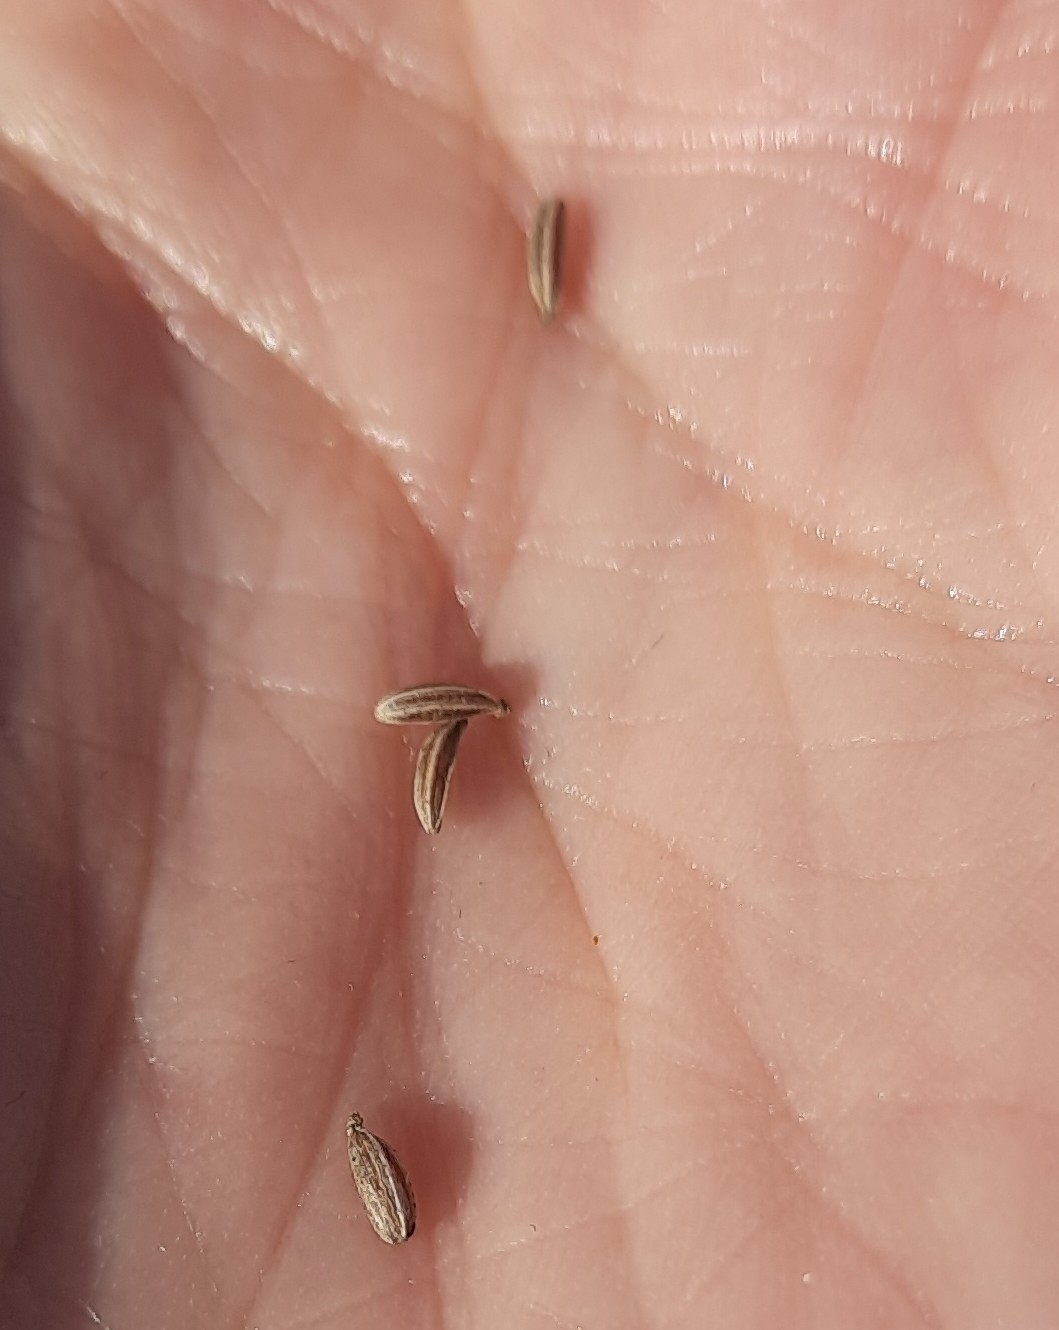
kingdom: Plantae
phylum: Tracheophyta
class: Magnoliopsida
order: Apiales
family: Apiaceae
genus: Carum
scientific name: Carum carvi
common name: Caraway
